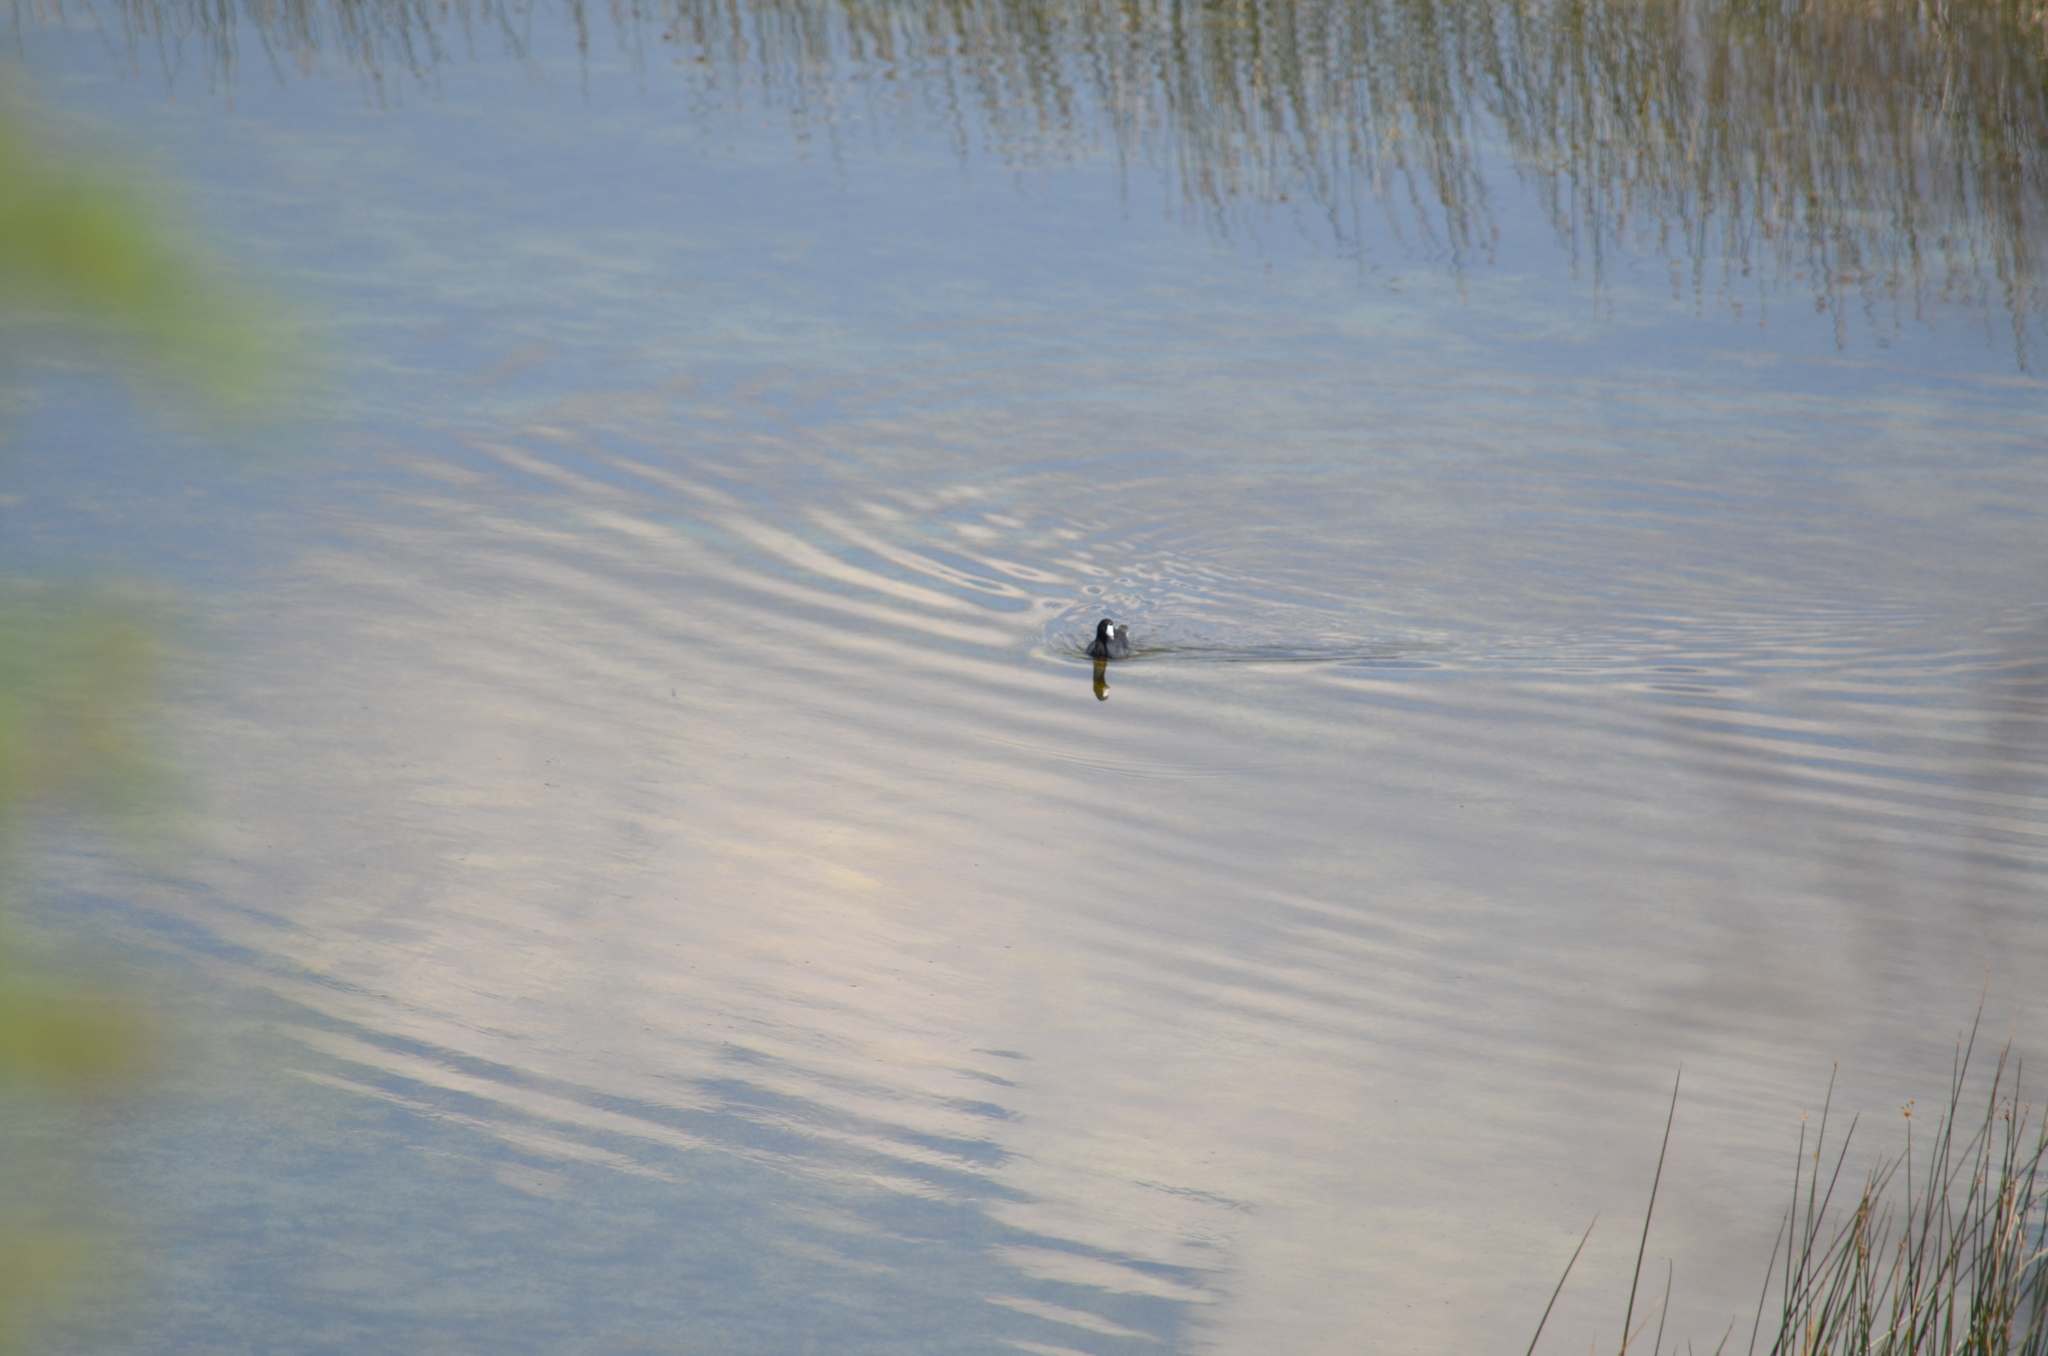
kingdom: Animalia
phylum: Chordata
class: Aves
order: Gruiformes
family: Rallidae
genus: Fulica
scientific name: Fulica americana
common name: American coot
